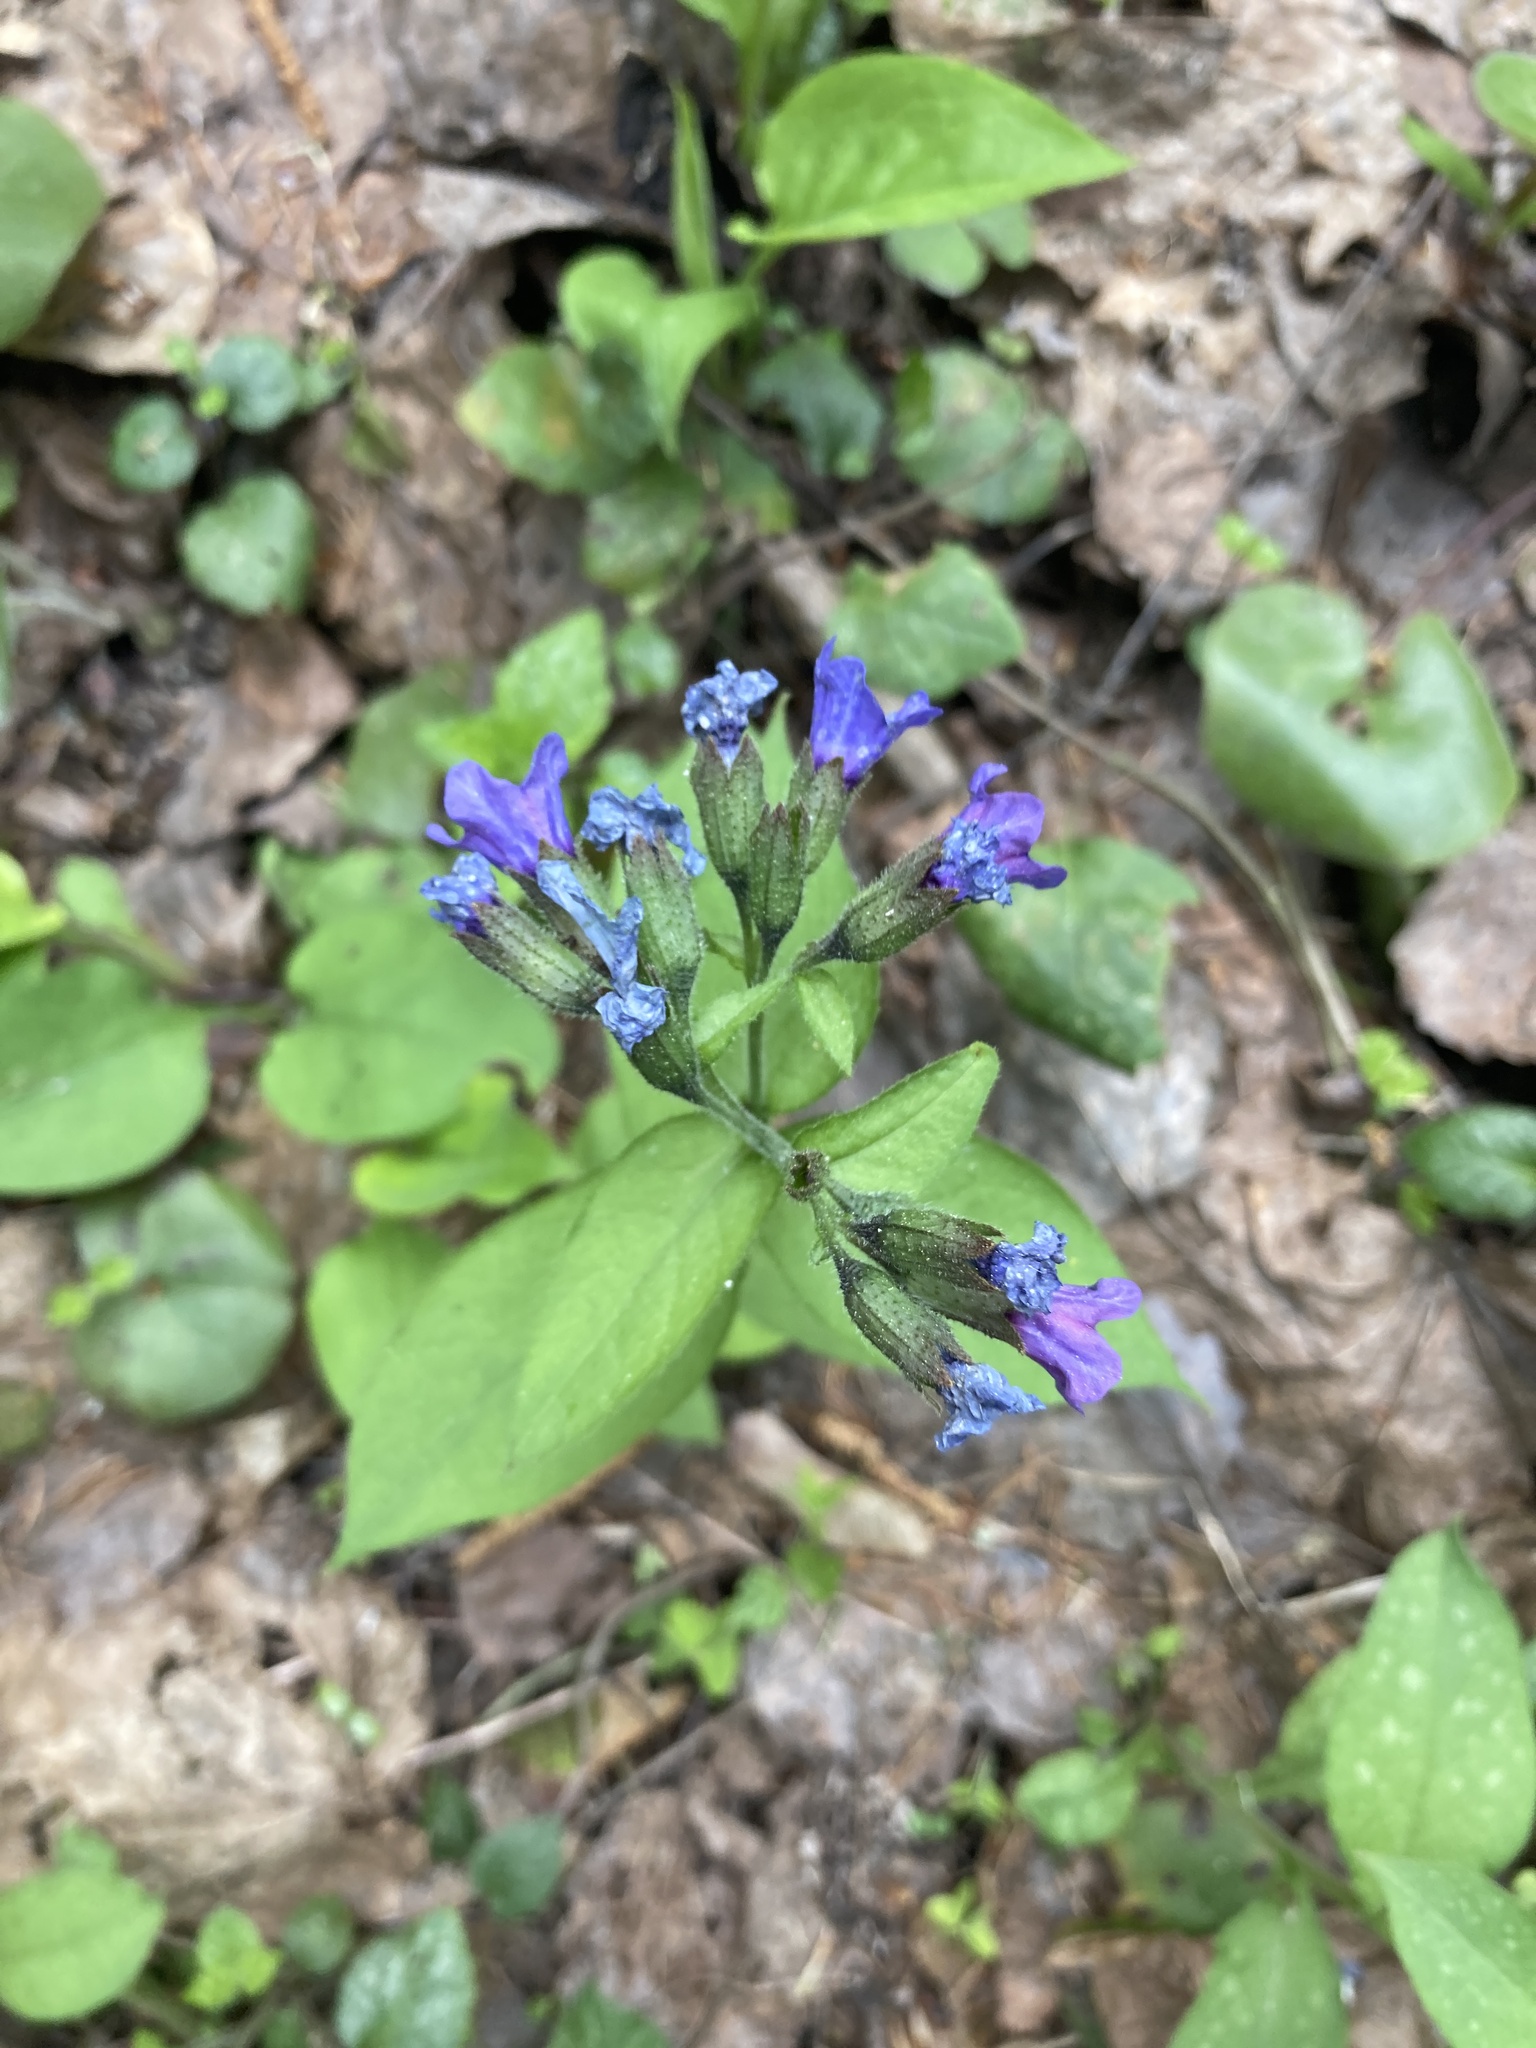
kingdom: Plantae
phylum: Tracheophyta
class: Magnoliopsida
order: Boraginales
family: Boraginaceae
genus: Pulmonaria
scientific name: Pulmonaria obscura
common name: Suffolk lungwort
